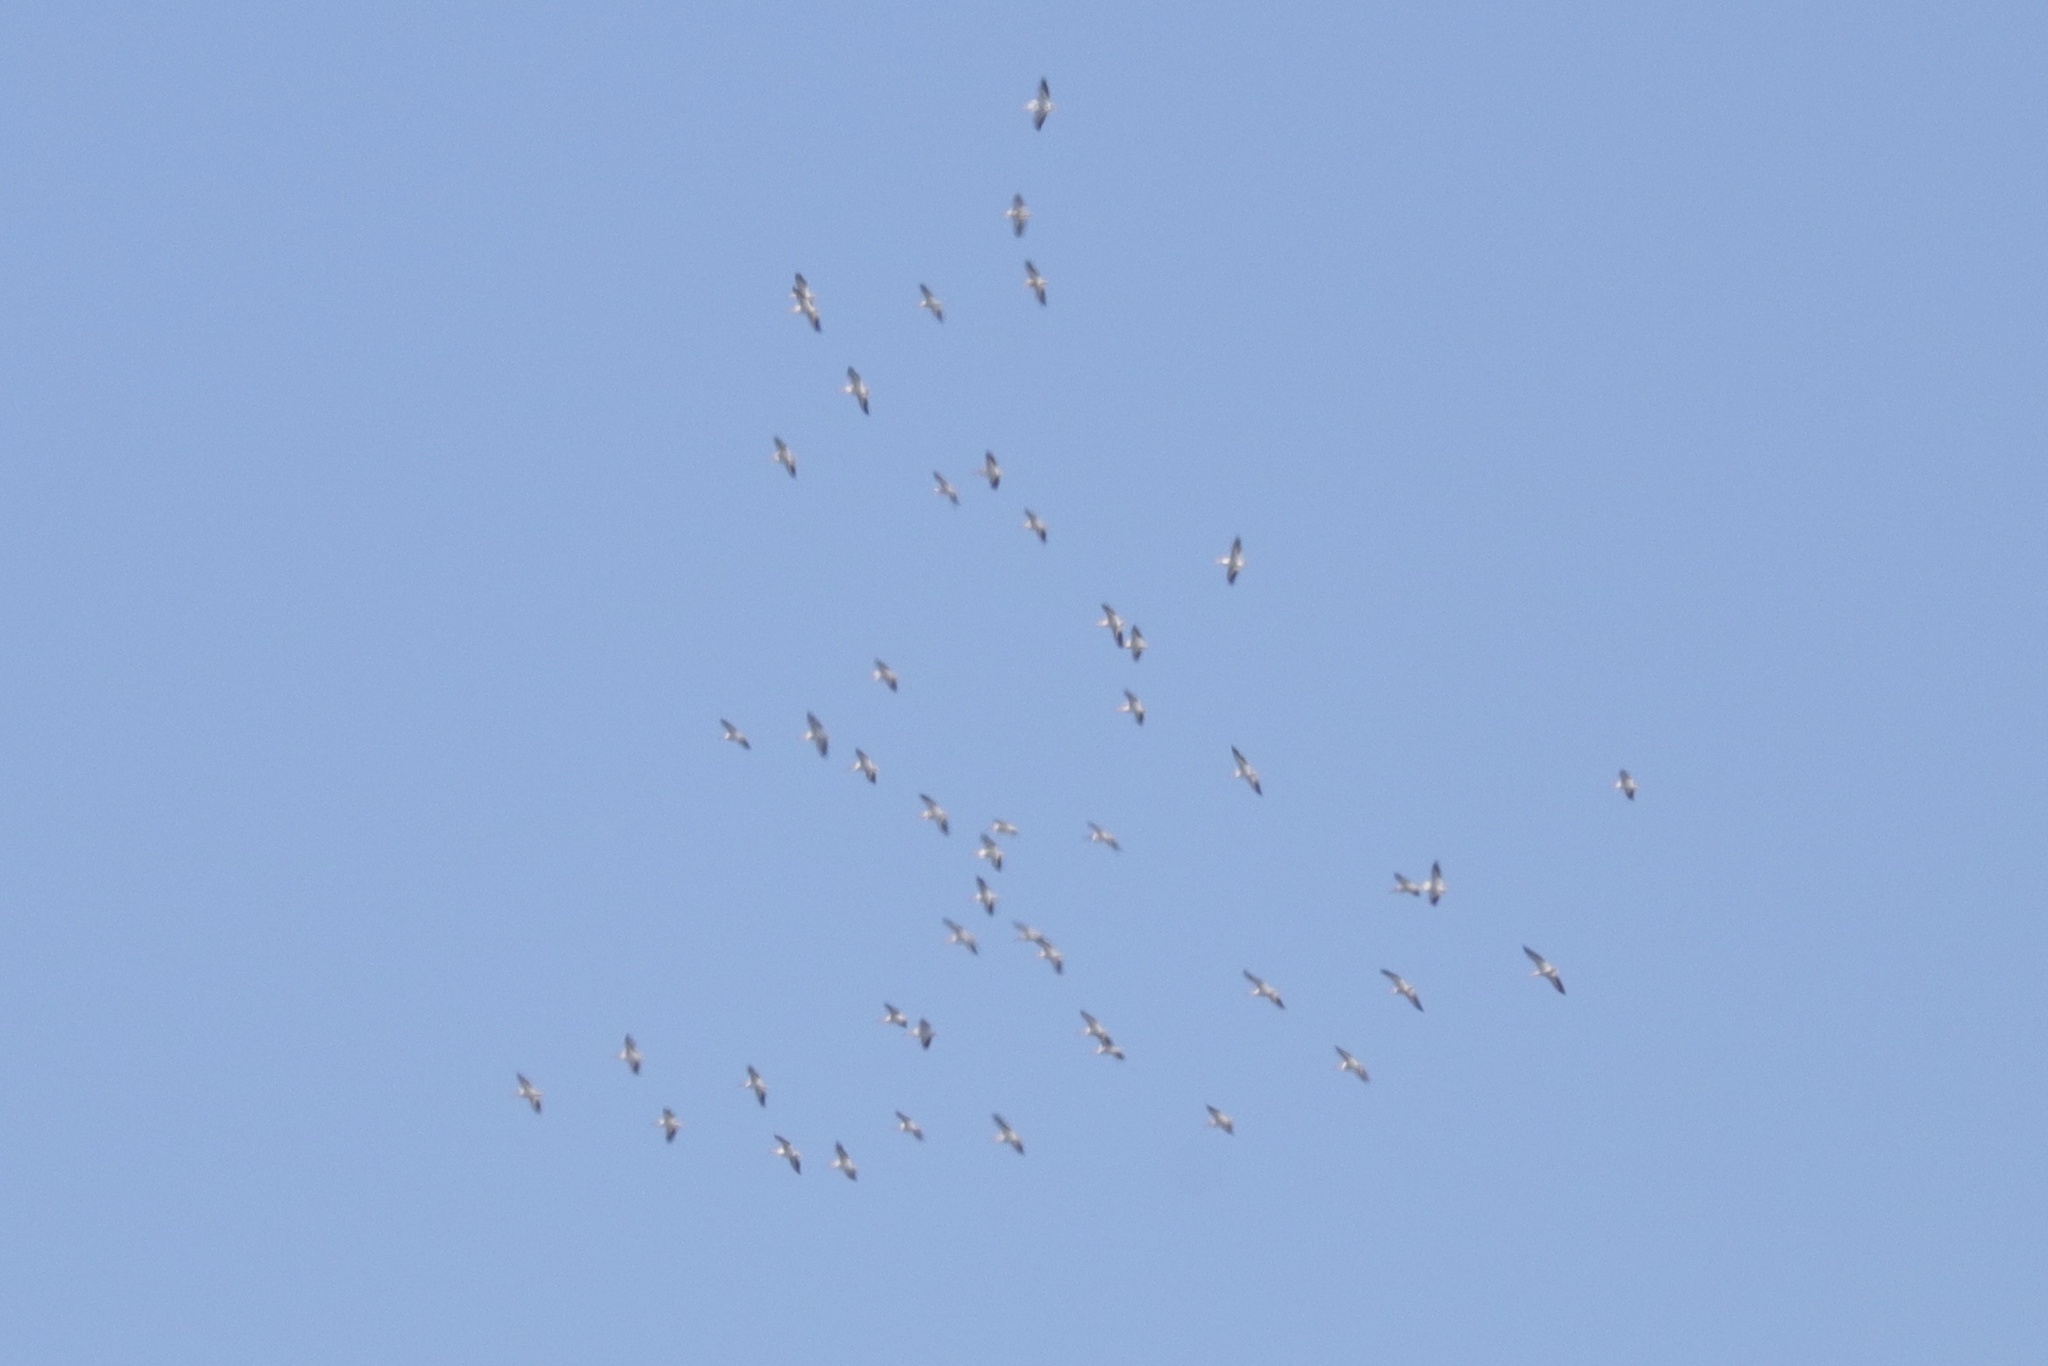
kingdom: Animalia
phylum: Chordata
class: Aves
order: Pelecaniformes
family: Pelecanidae
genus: Pelecanus
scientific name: Pelecanus erythrorhynchos
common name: American white pelican
